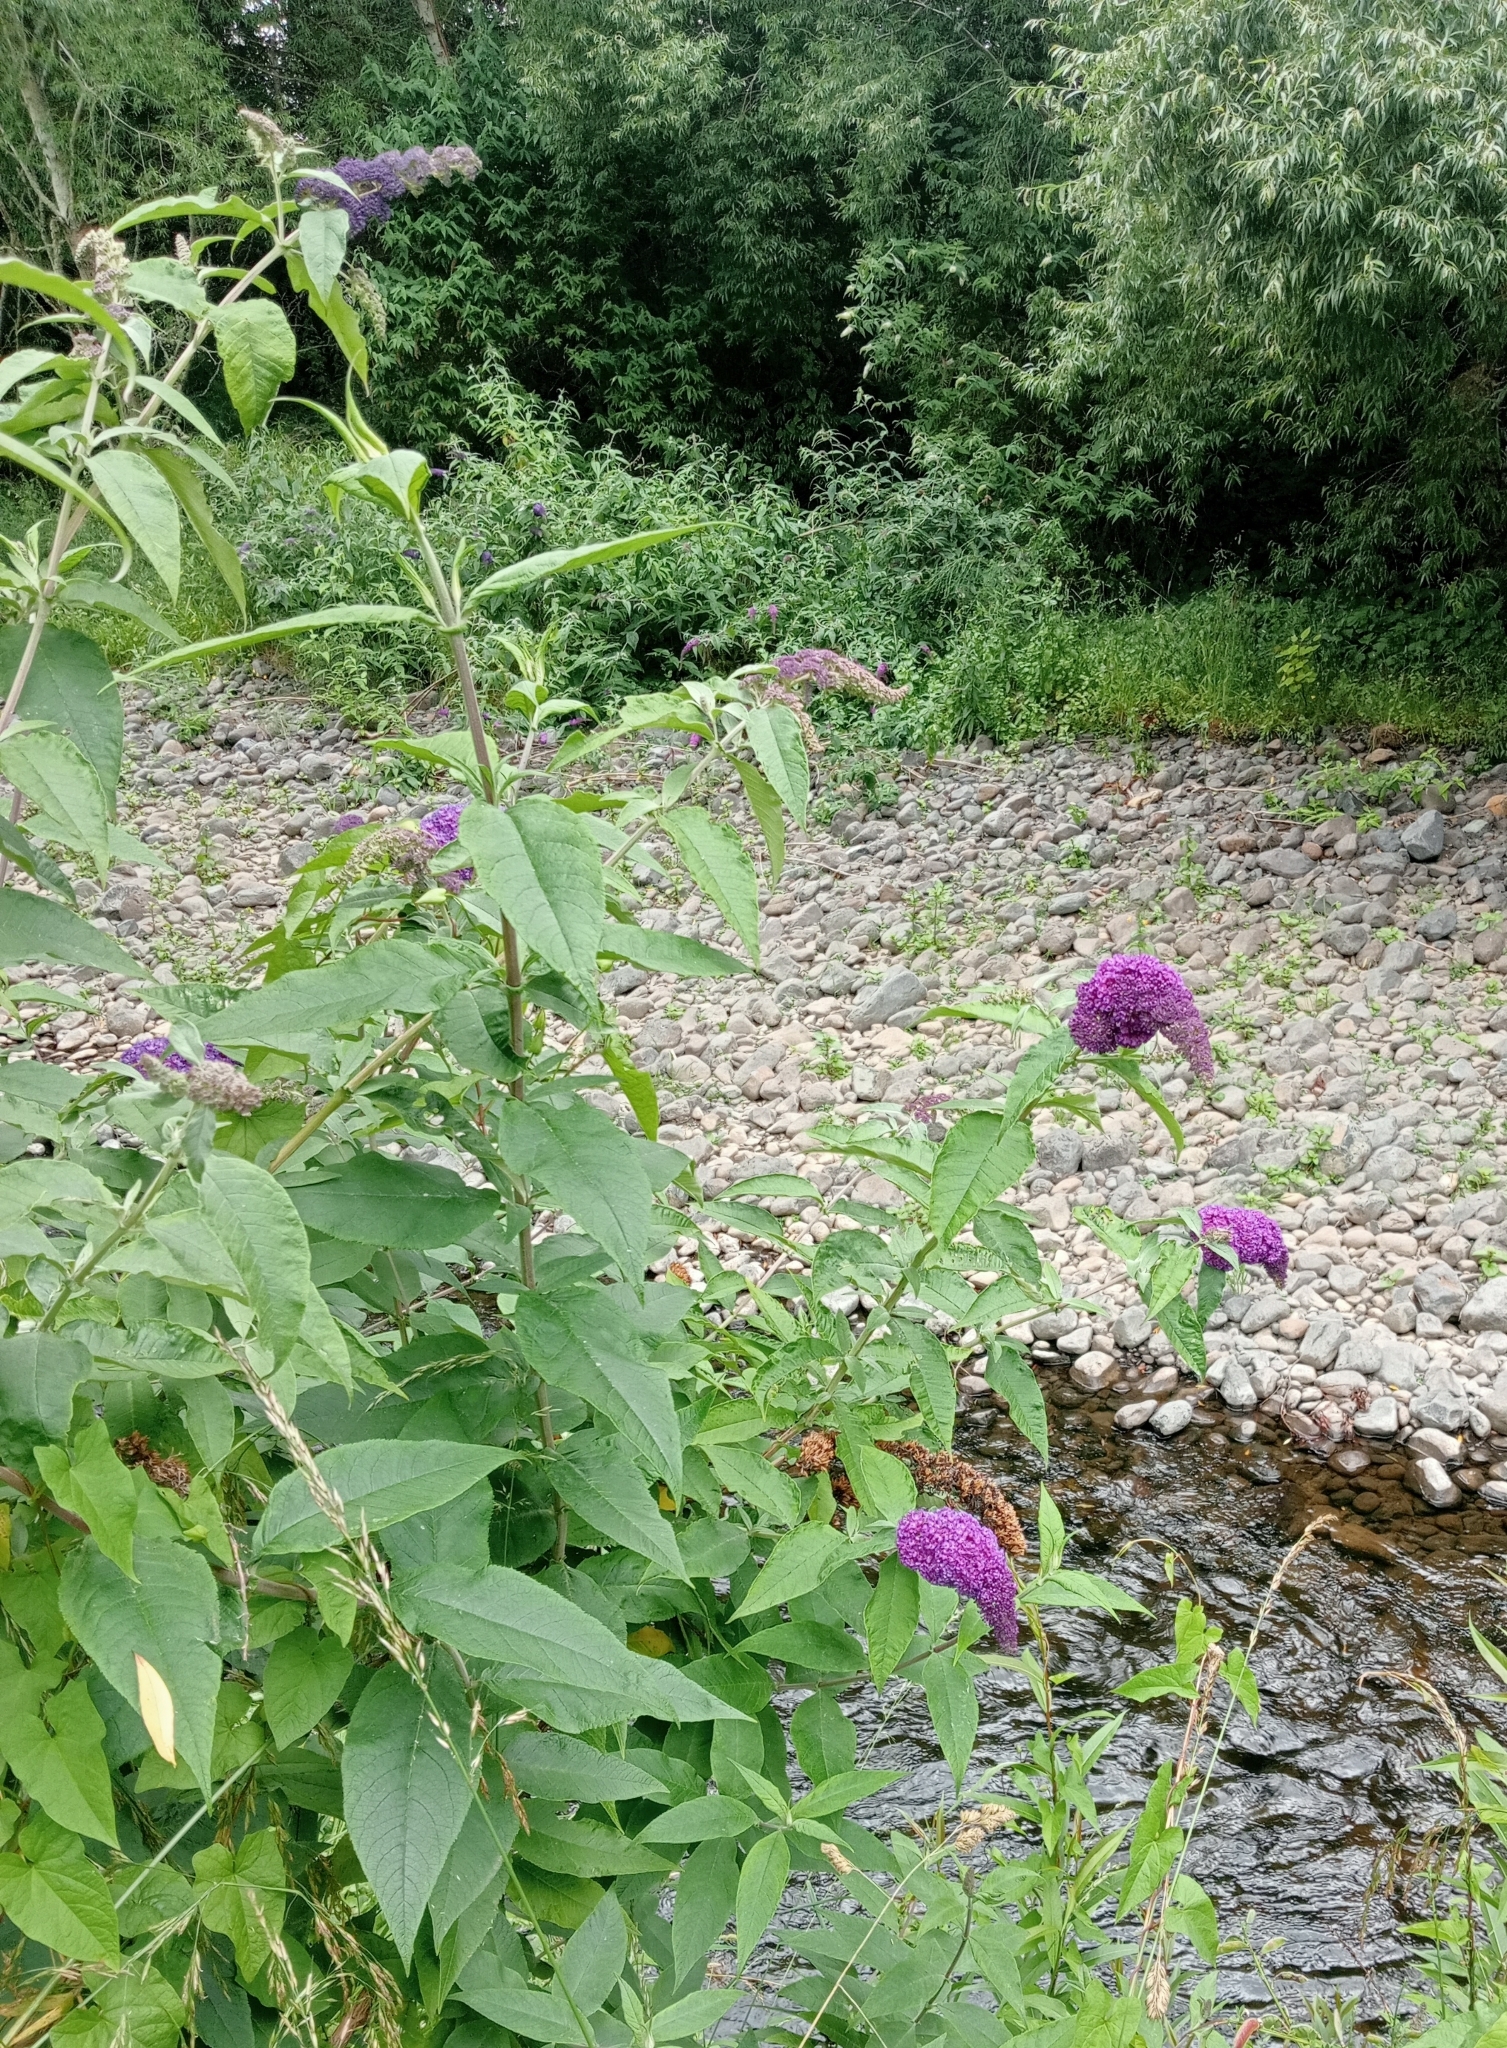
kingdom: Plantae
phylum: Tracheophyta
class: Magnoliopsida
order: Lamiales
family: Scrophulariaceae
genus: Buddleja
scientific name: Buddleja davidii
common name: Butterfly-bush
